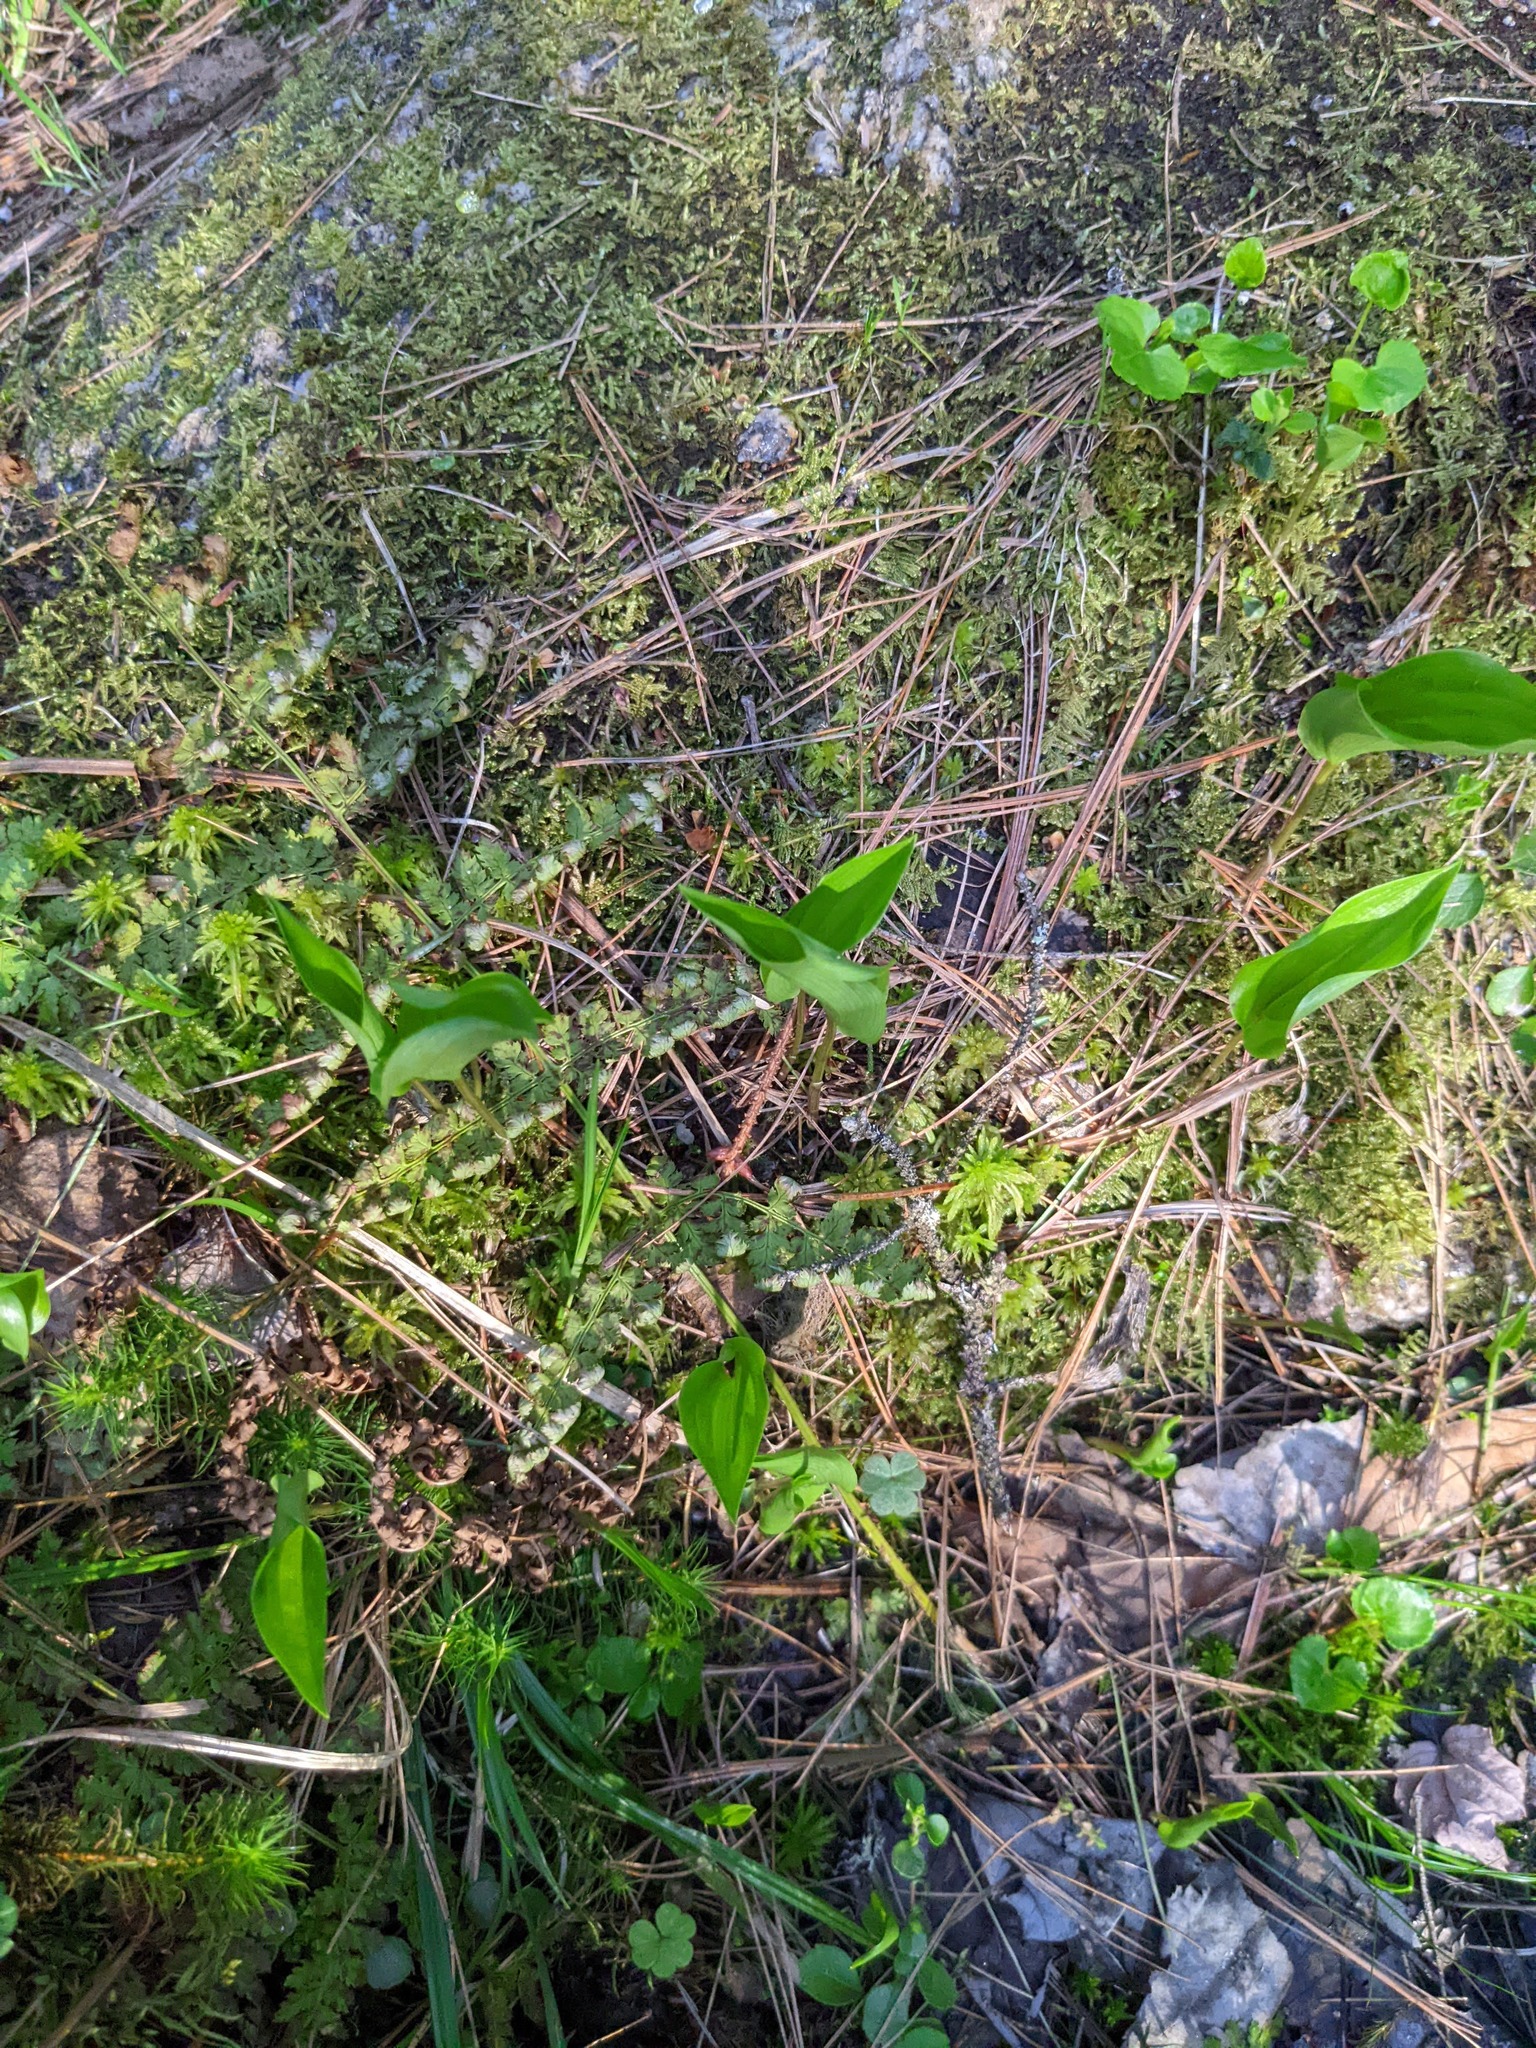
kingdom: Plantae
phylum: Tracheophyta
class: Liliopsida
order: Asparagales
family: Asparagaceae
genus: Maianthemum
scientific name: Maianthemum canadense
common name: False lily-of-the-valley
